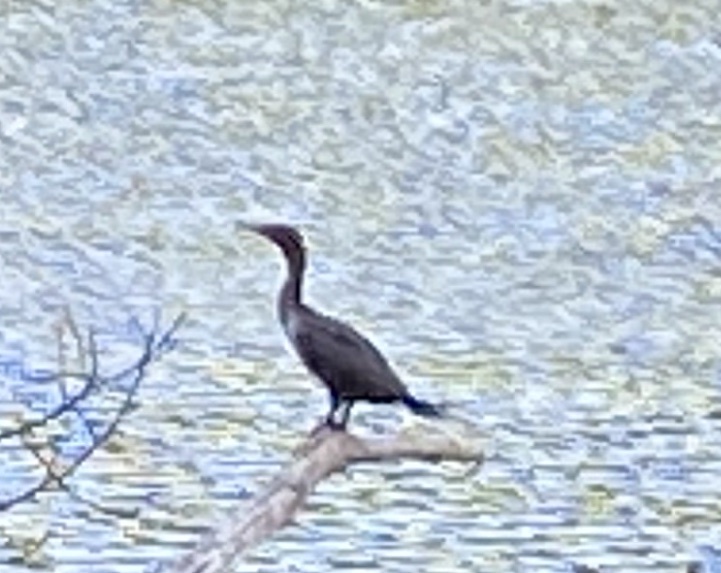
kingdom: Animalia
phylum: Chordata
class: Aves
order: Suliformes
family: Phalacrocoracidae
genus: Phalacrocorax
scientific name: Phalacrocorax auritus
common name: Double-crested cormorant
